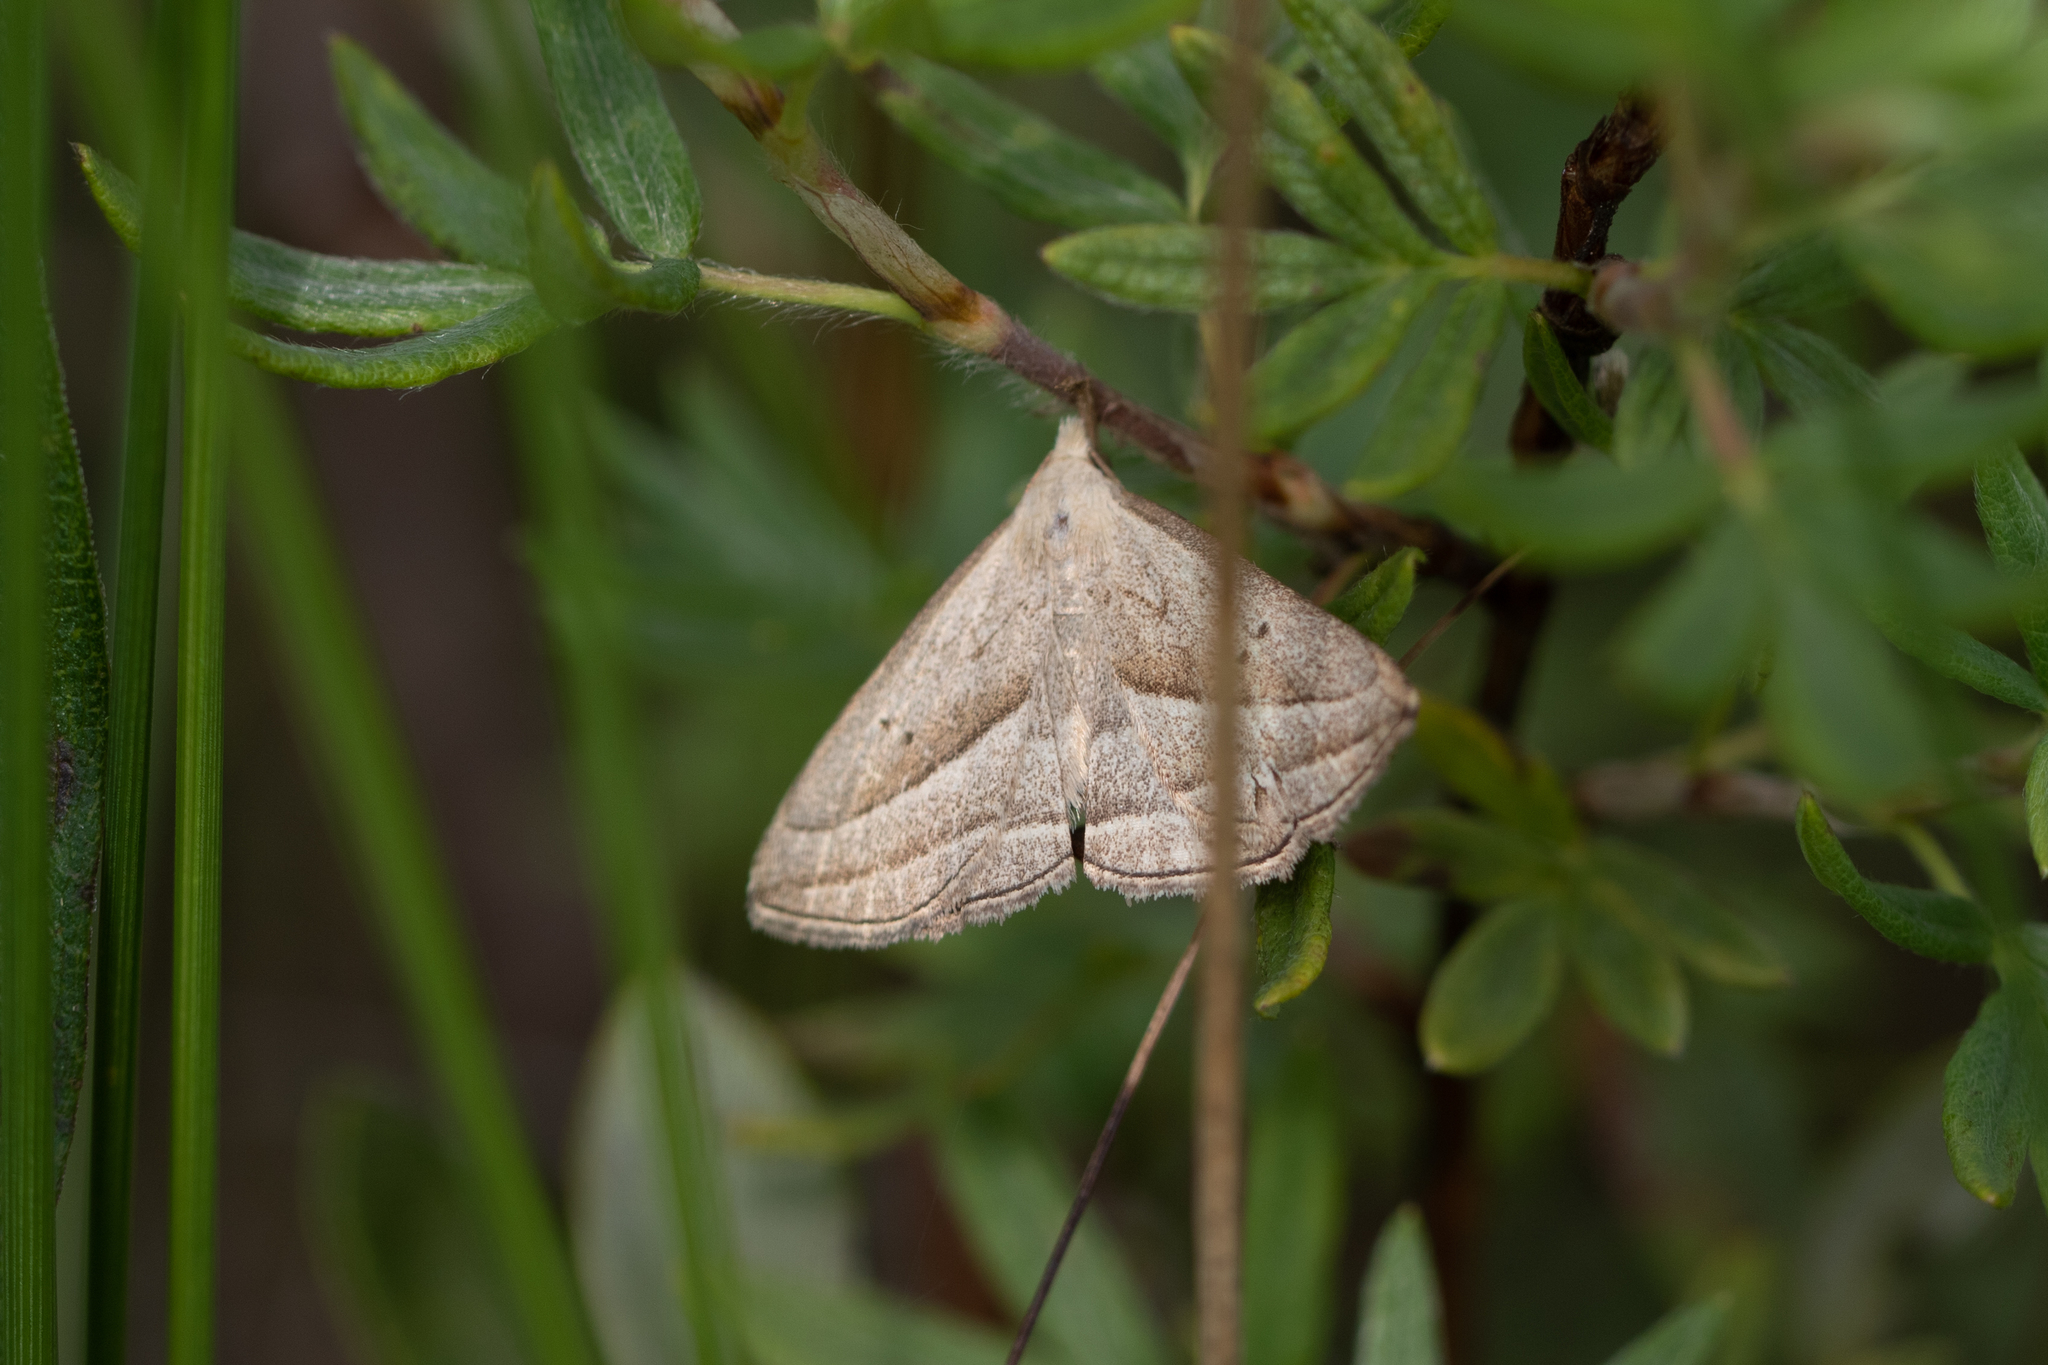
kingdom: Animalia
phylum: Arthropoda
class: Insecta
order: Lepidoptera
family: Erebidae
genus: Macrochilo
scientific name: Macrochilo absorptalis
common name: Slant-lined owlet
